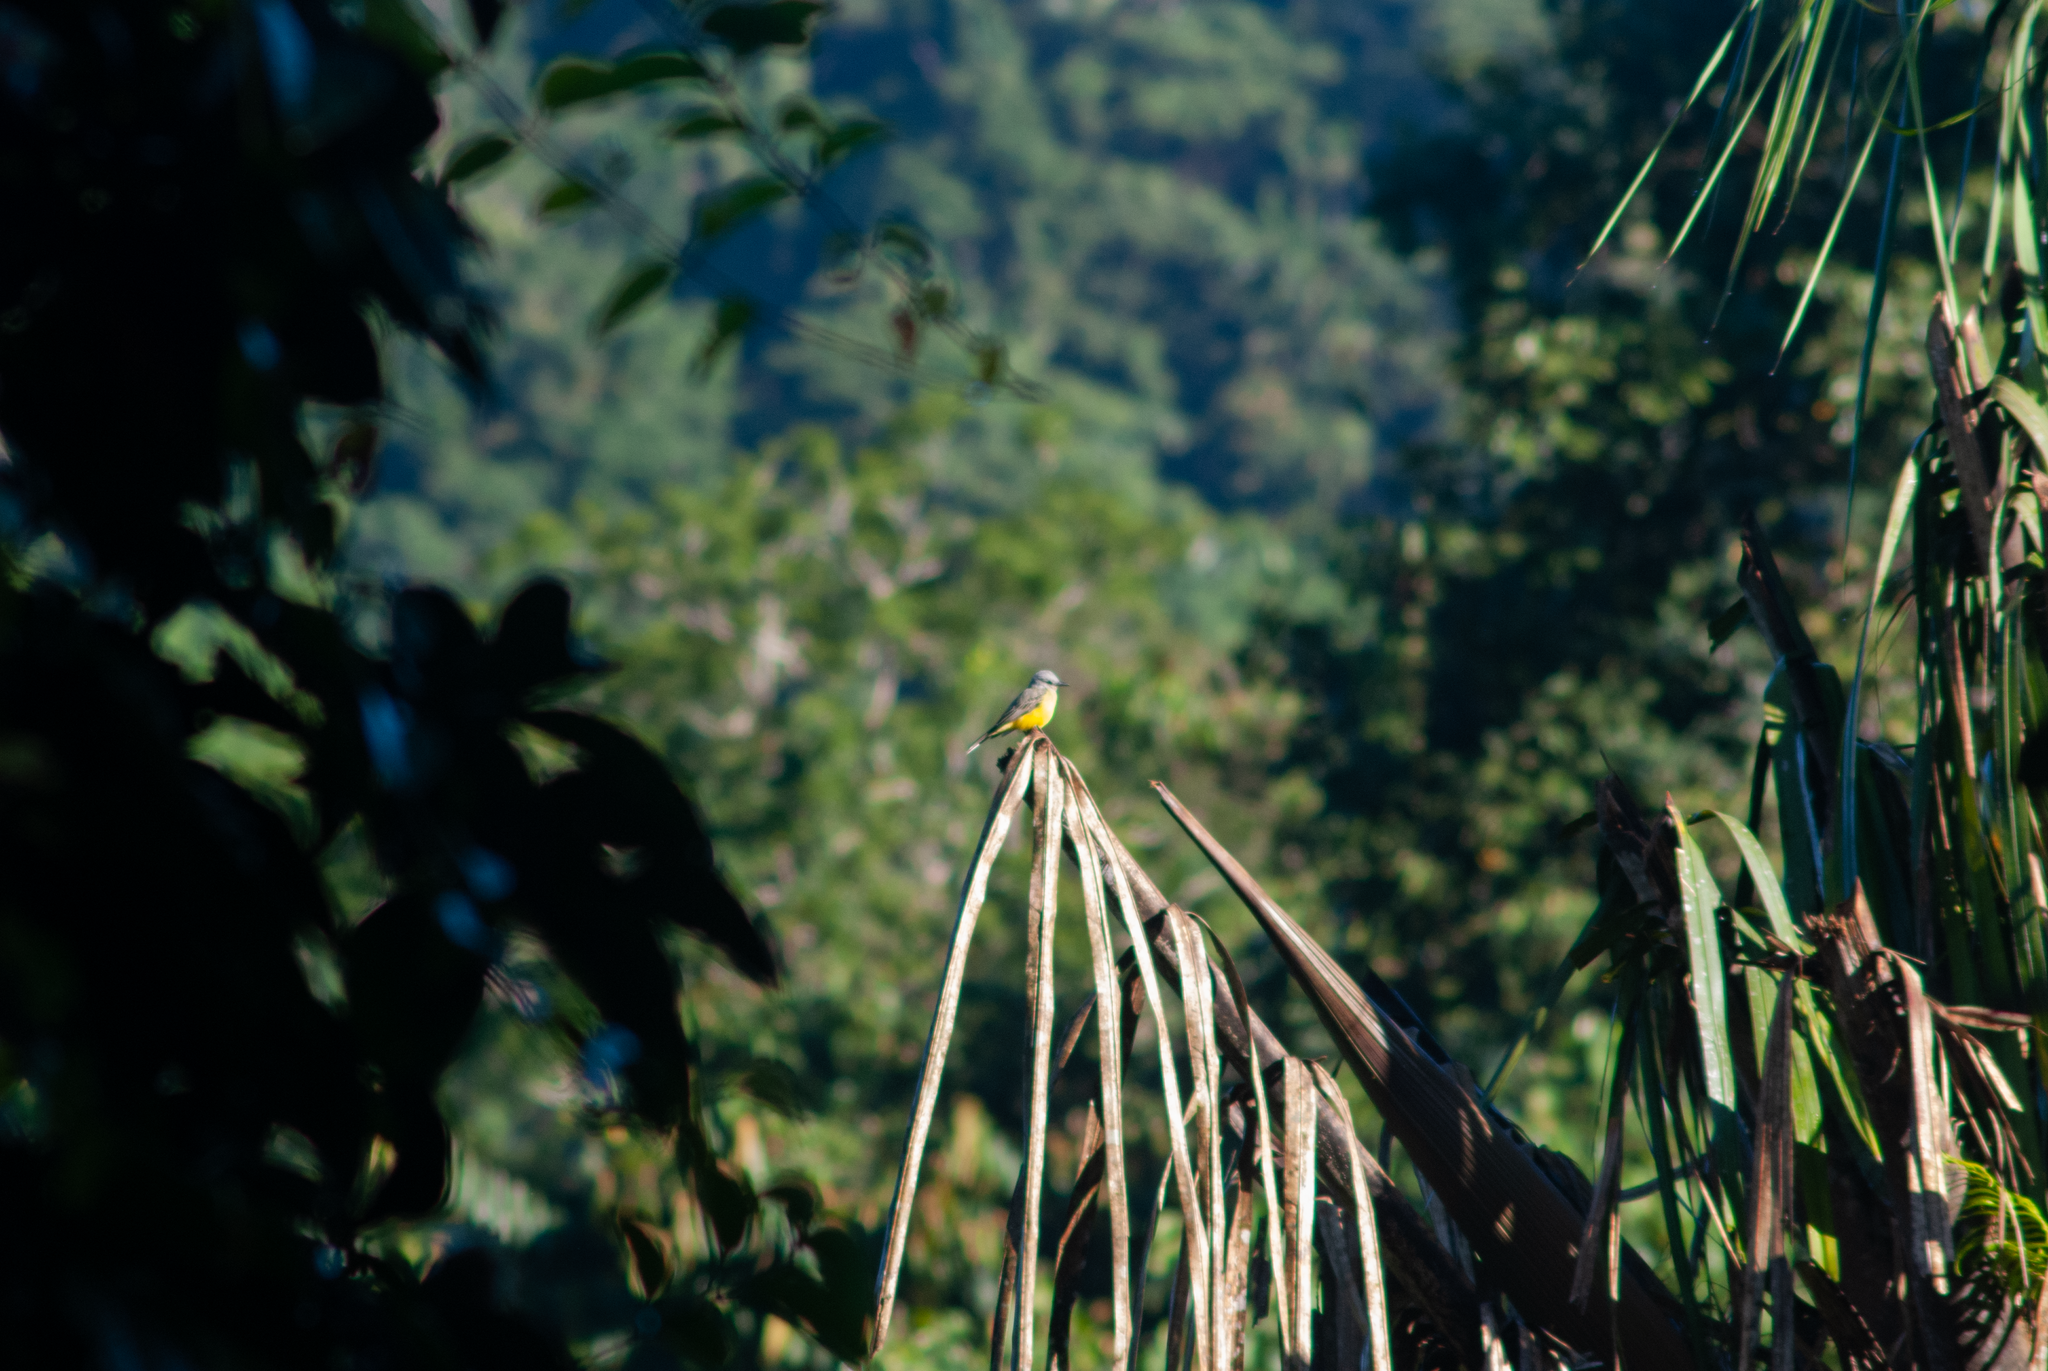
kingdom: Animalia
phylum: Chordata
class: Aves
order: Passeriformes
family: Tyrannidae
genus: Tyrannus
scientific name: Tyrannus melancholicus
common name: Tropical kingbird
